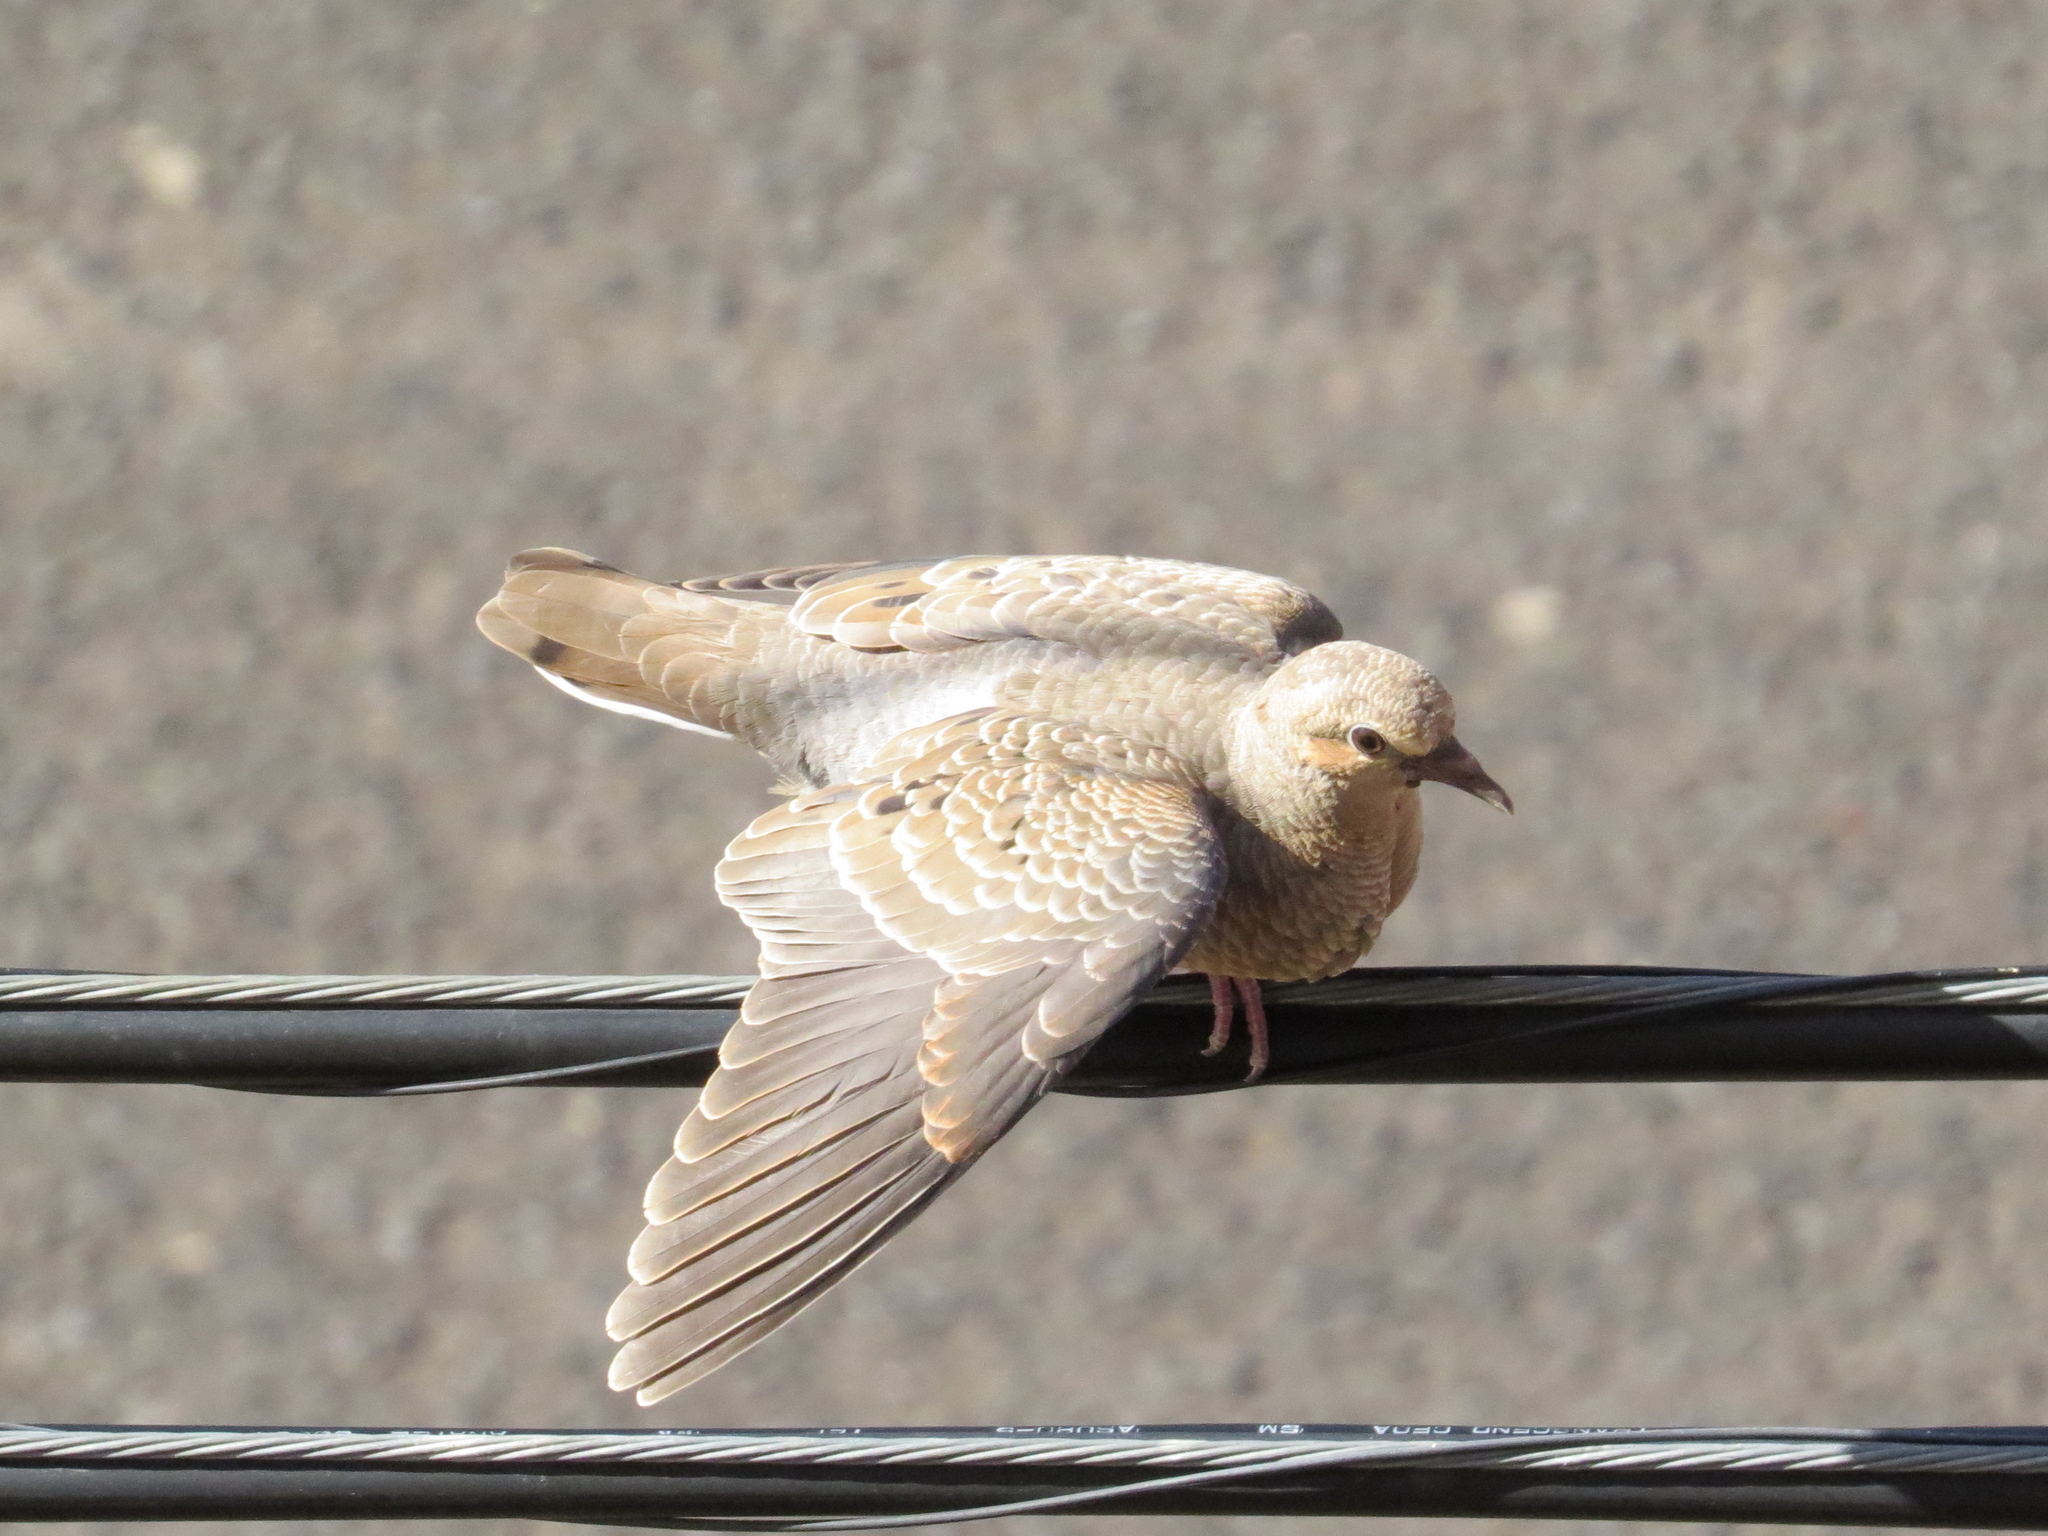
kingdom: Animalia
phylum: Chordata
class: Aves
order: Columbiformes
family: Columbidae
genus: Zenaida
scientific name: Zenaida auriculata
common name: Eared dove
